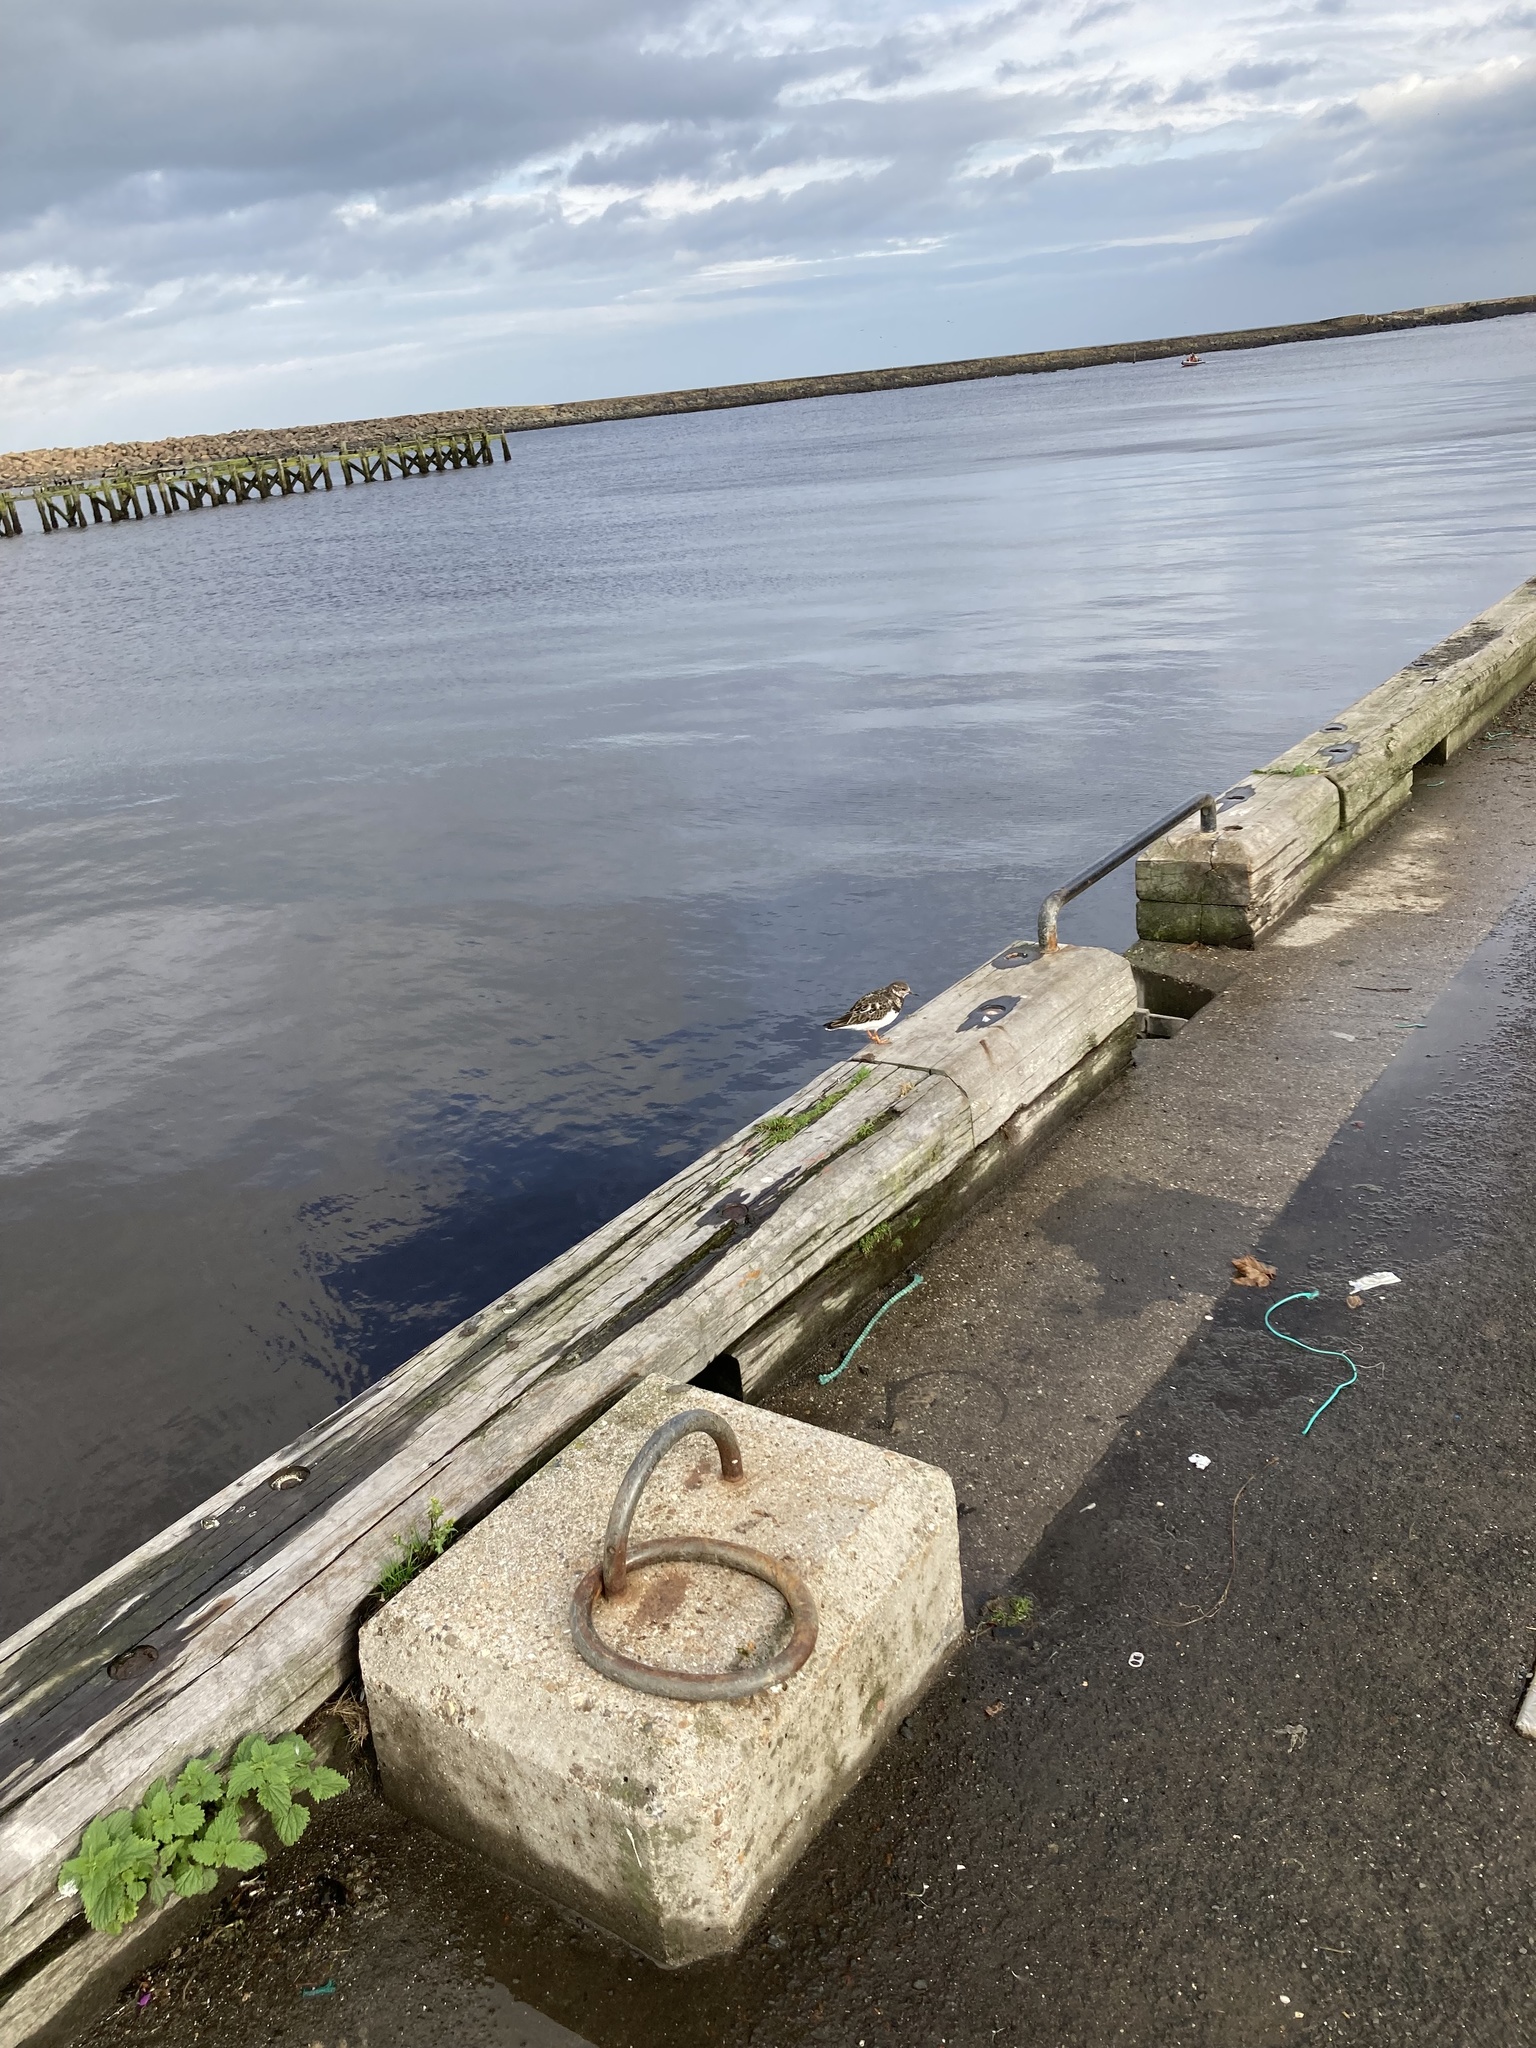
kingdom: Animalia
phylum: Chordata
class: Aves
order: Charadriiformes
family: Scolopacidae
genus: Arenaria
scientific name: Arenaria interpres
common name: Ruddy turnstone
